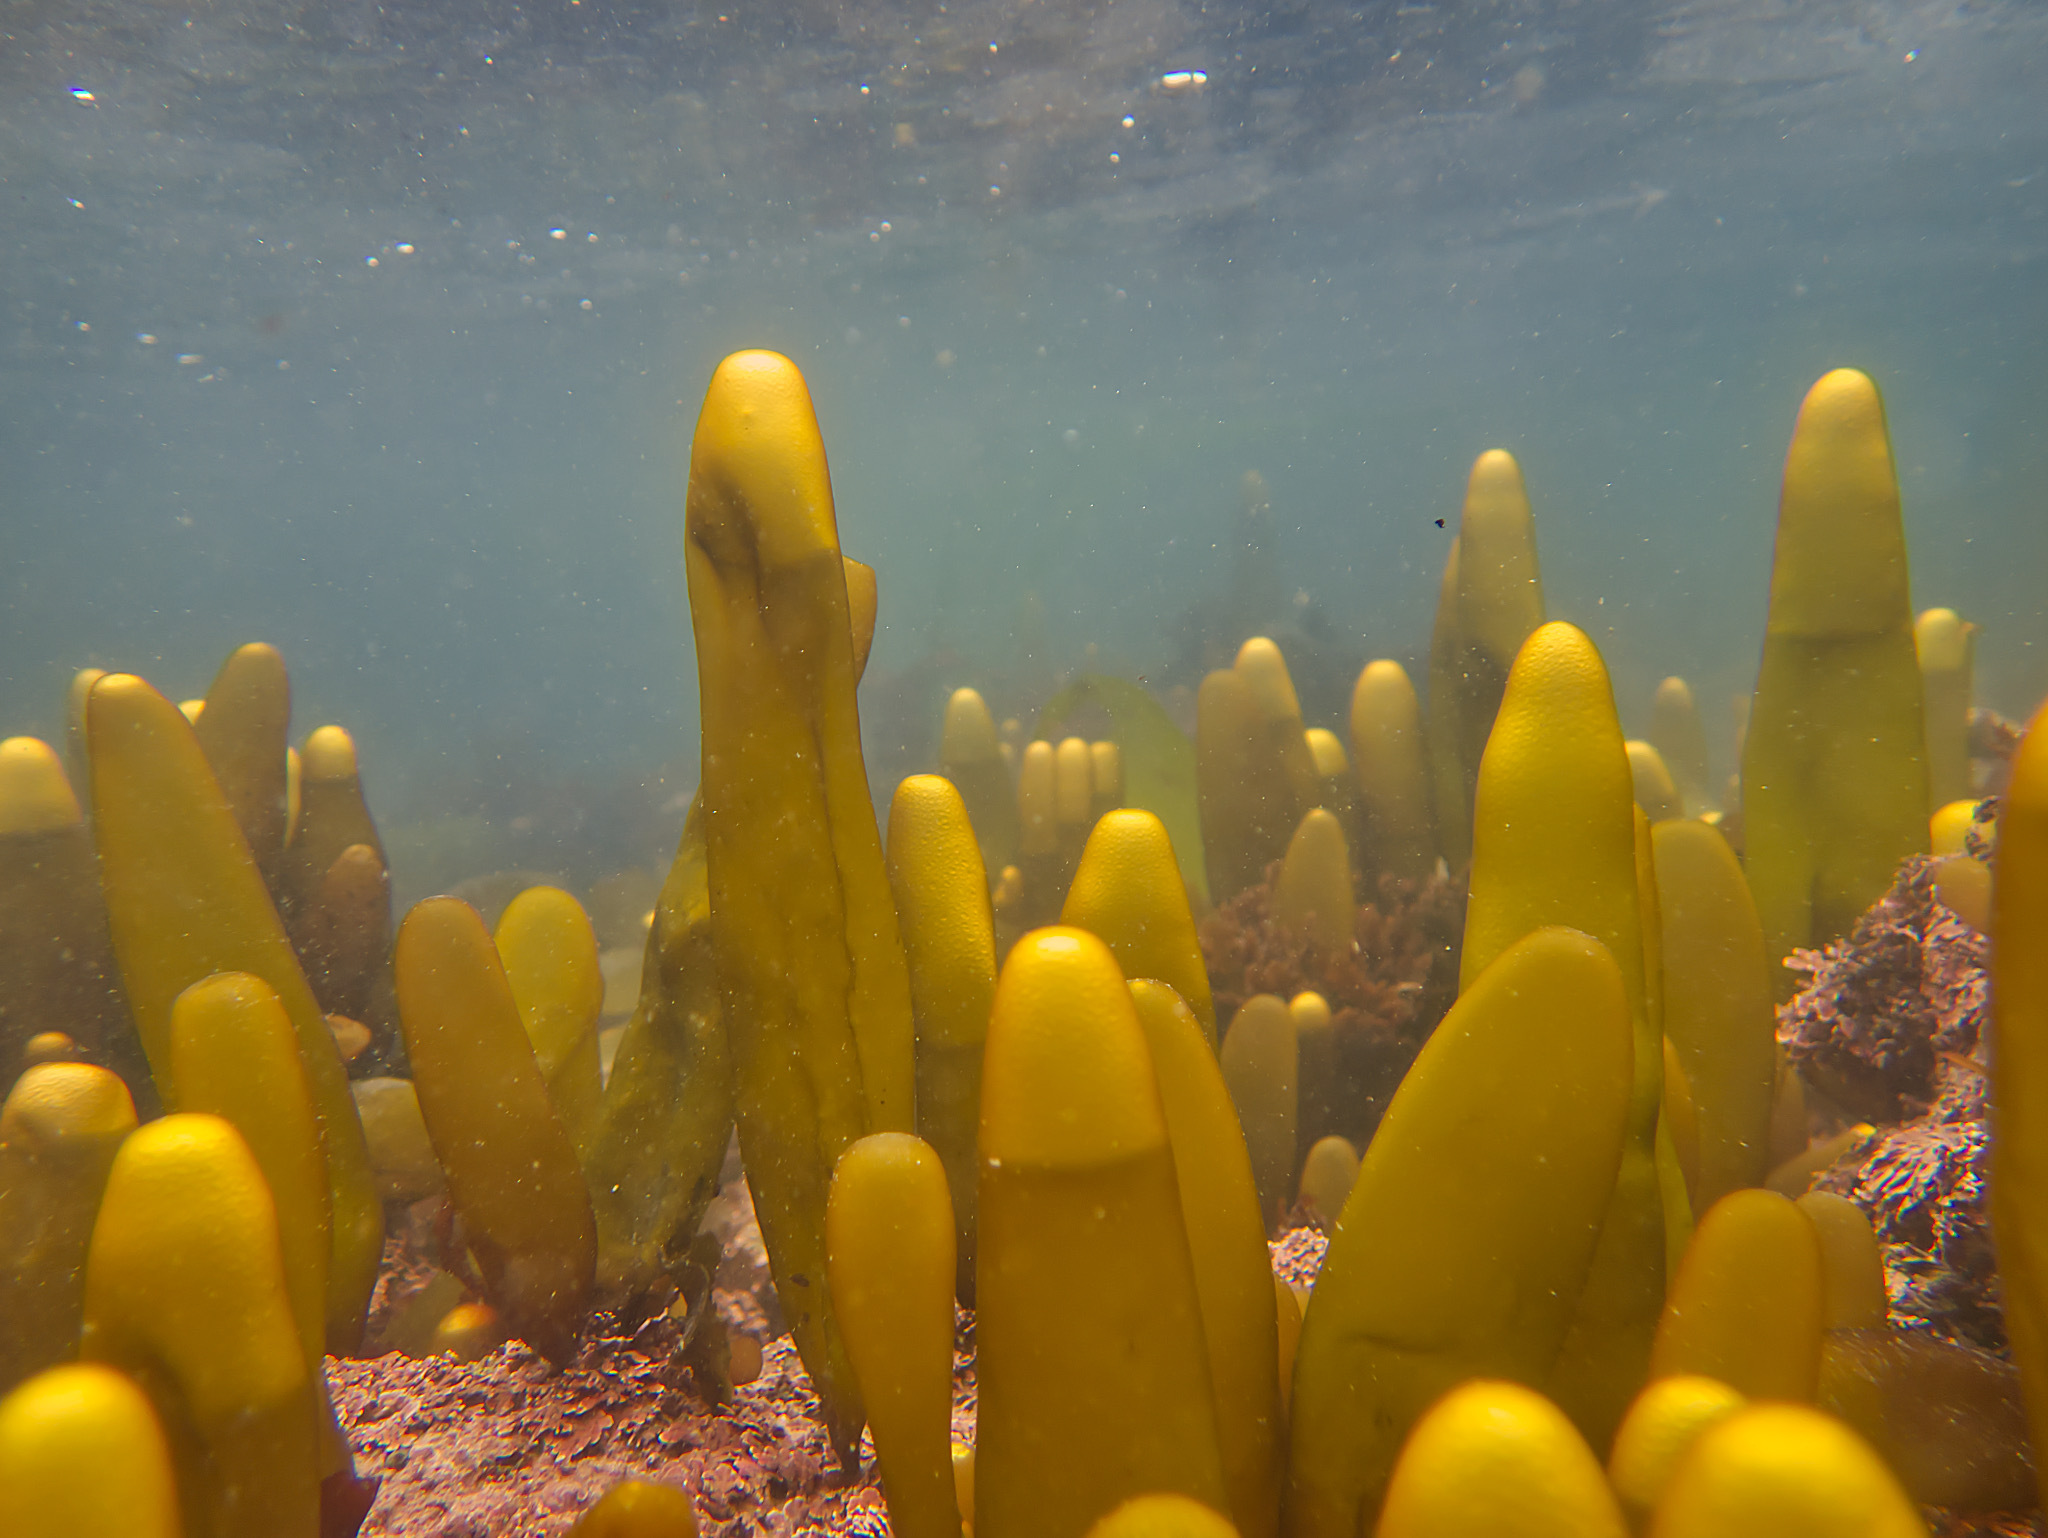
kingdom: Plantae
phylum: Rhodophyta
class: Florideophyceae
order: Palmariales
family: Palmariaceae
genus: Halosaccion
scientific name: Halosaccion glandiforme
